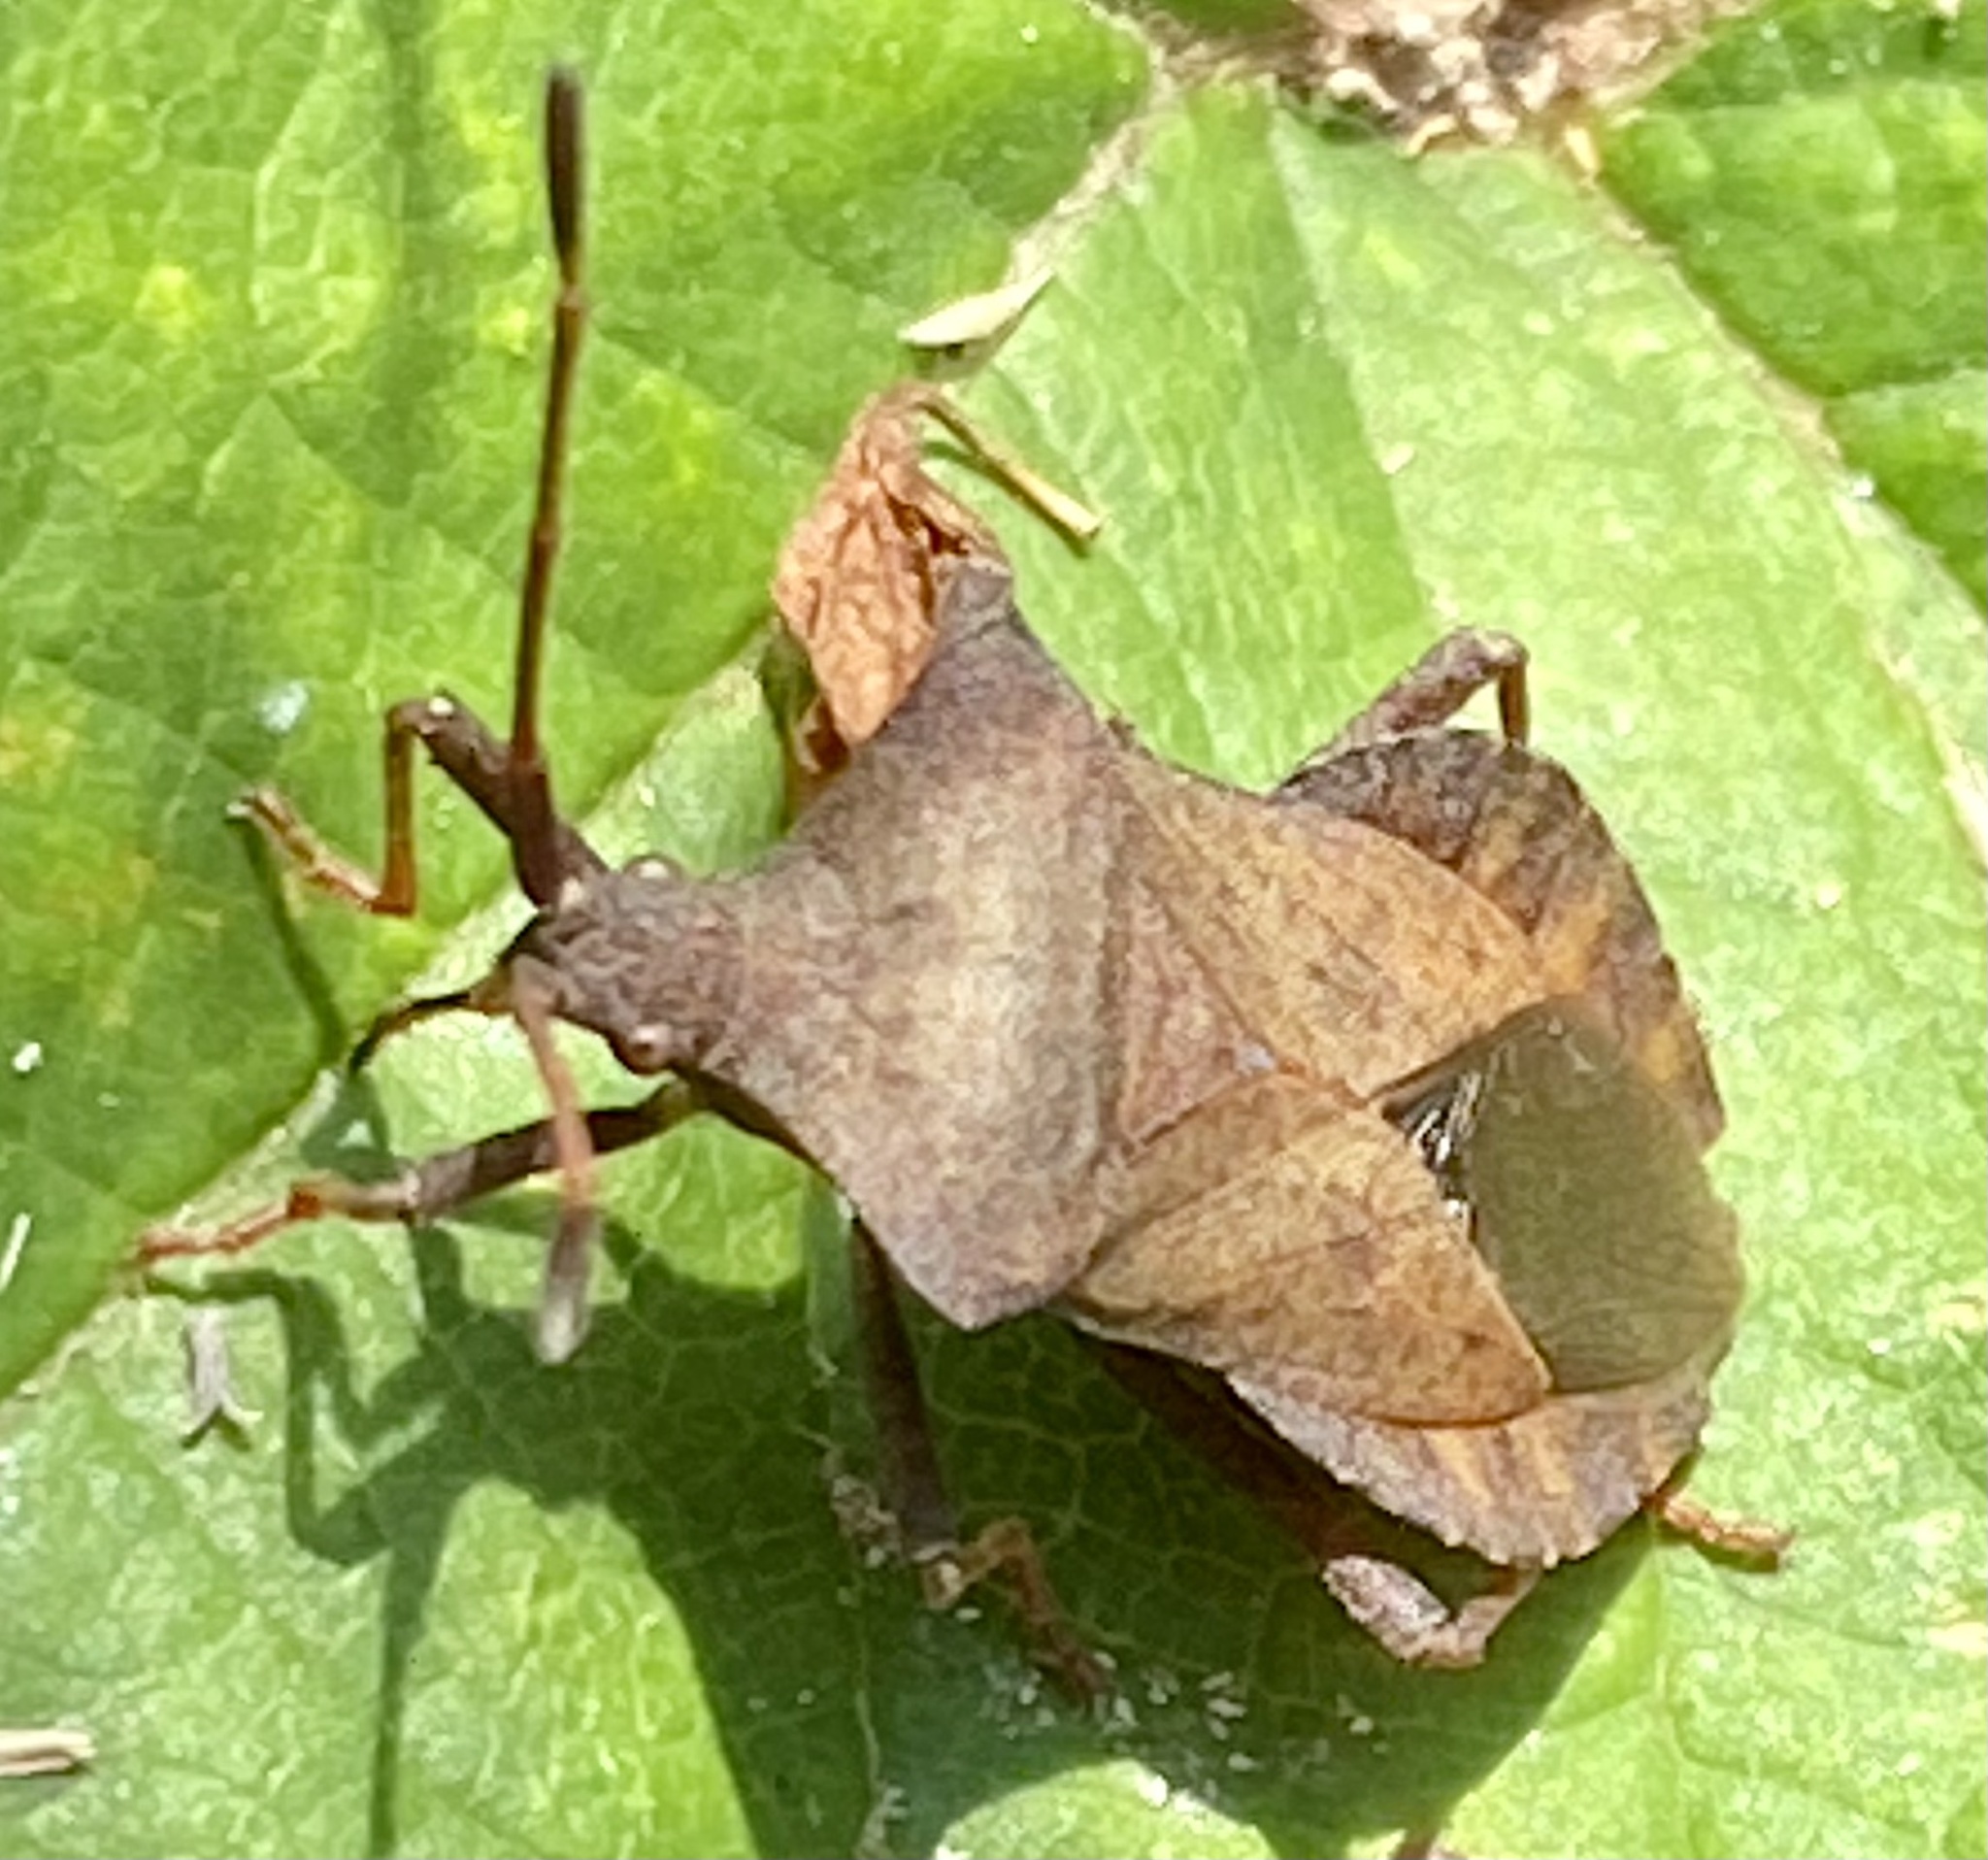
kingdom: Animalia
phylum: Arthropoda
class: Insecta
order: Hemiptera
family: Coreidae
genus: Coreus
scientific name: Coreus marginatus
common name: Dock bug
